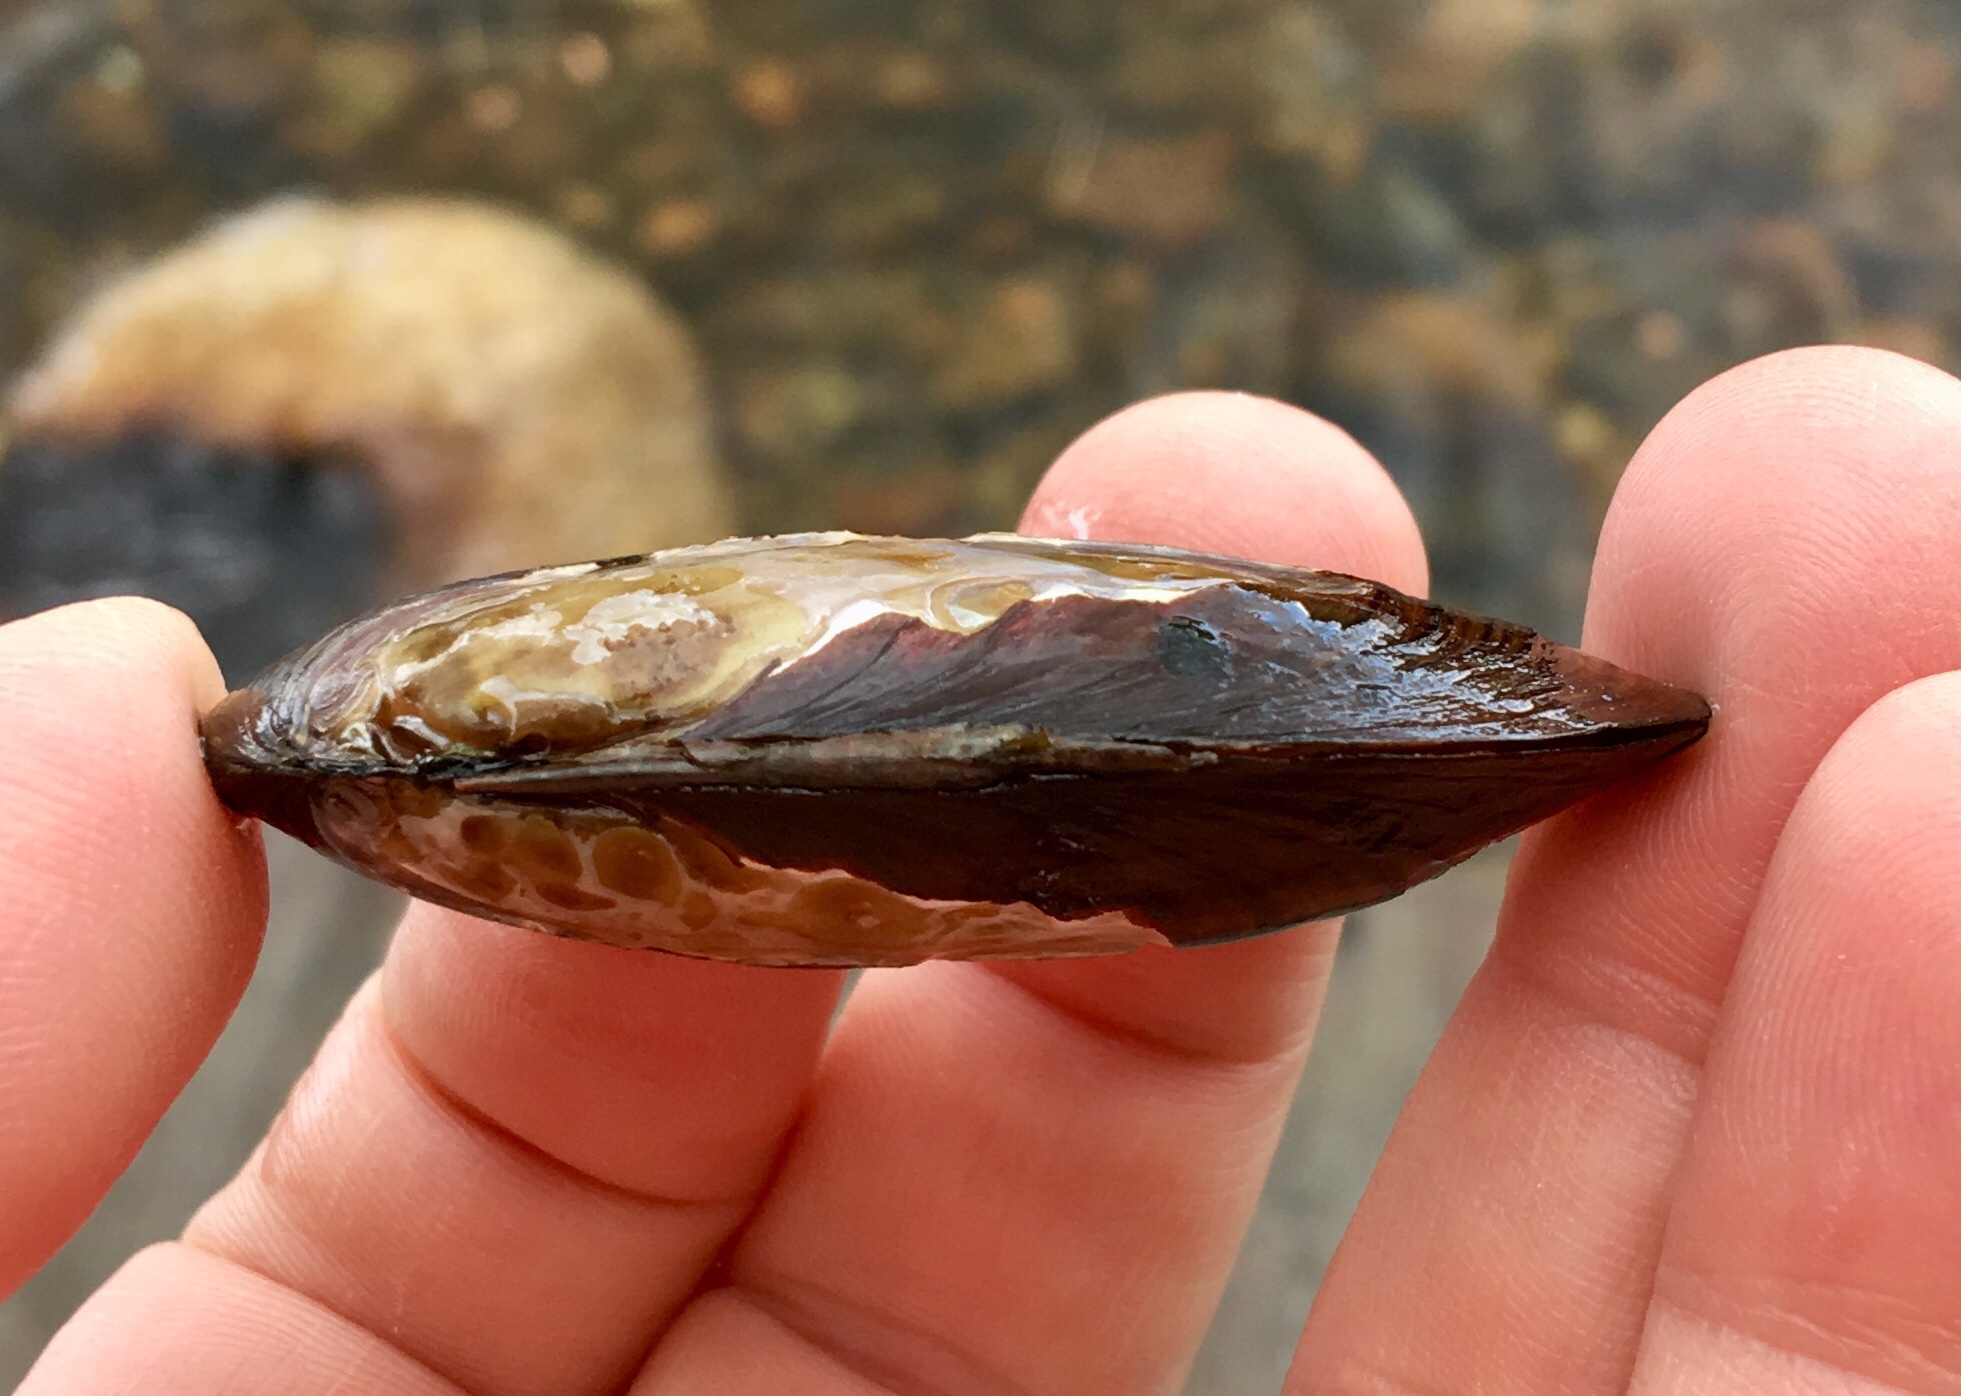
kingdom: Animalia
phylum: Mollusca
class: Bivalvia
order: Unionida
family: Unionidae
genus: Elliptio
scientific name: Elliptio complanata
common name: Eastern elliptio
